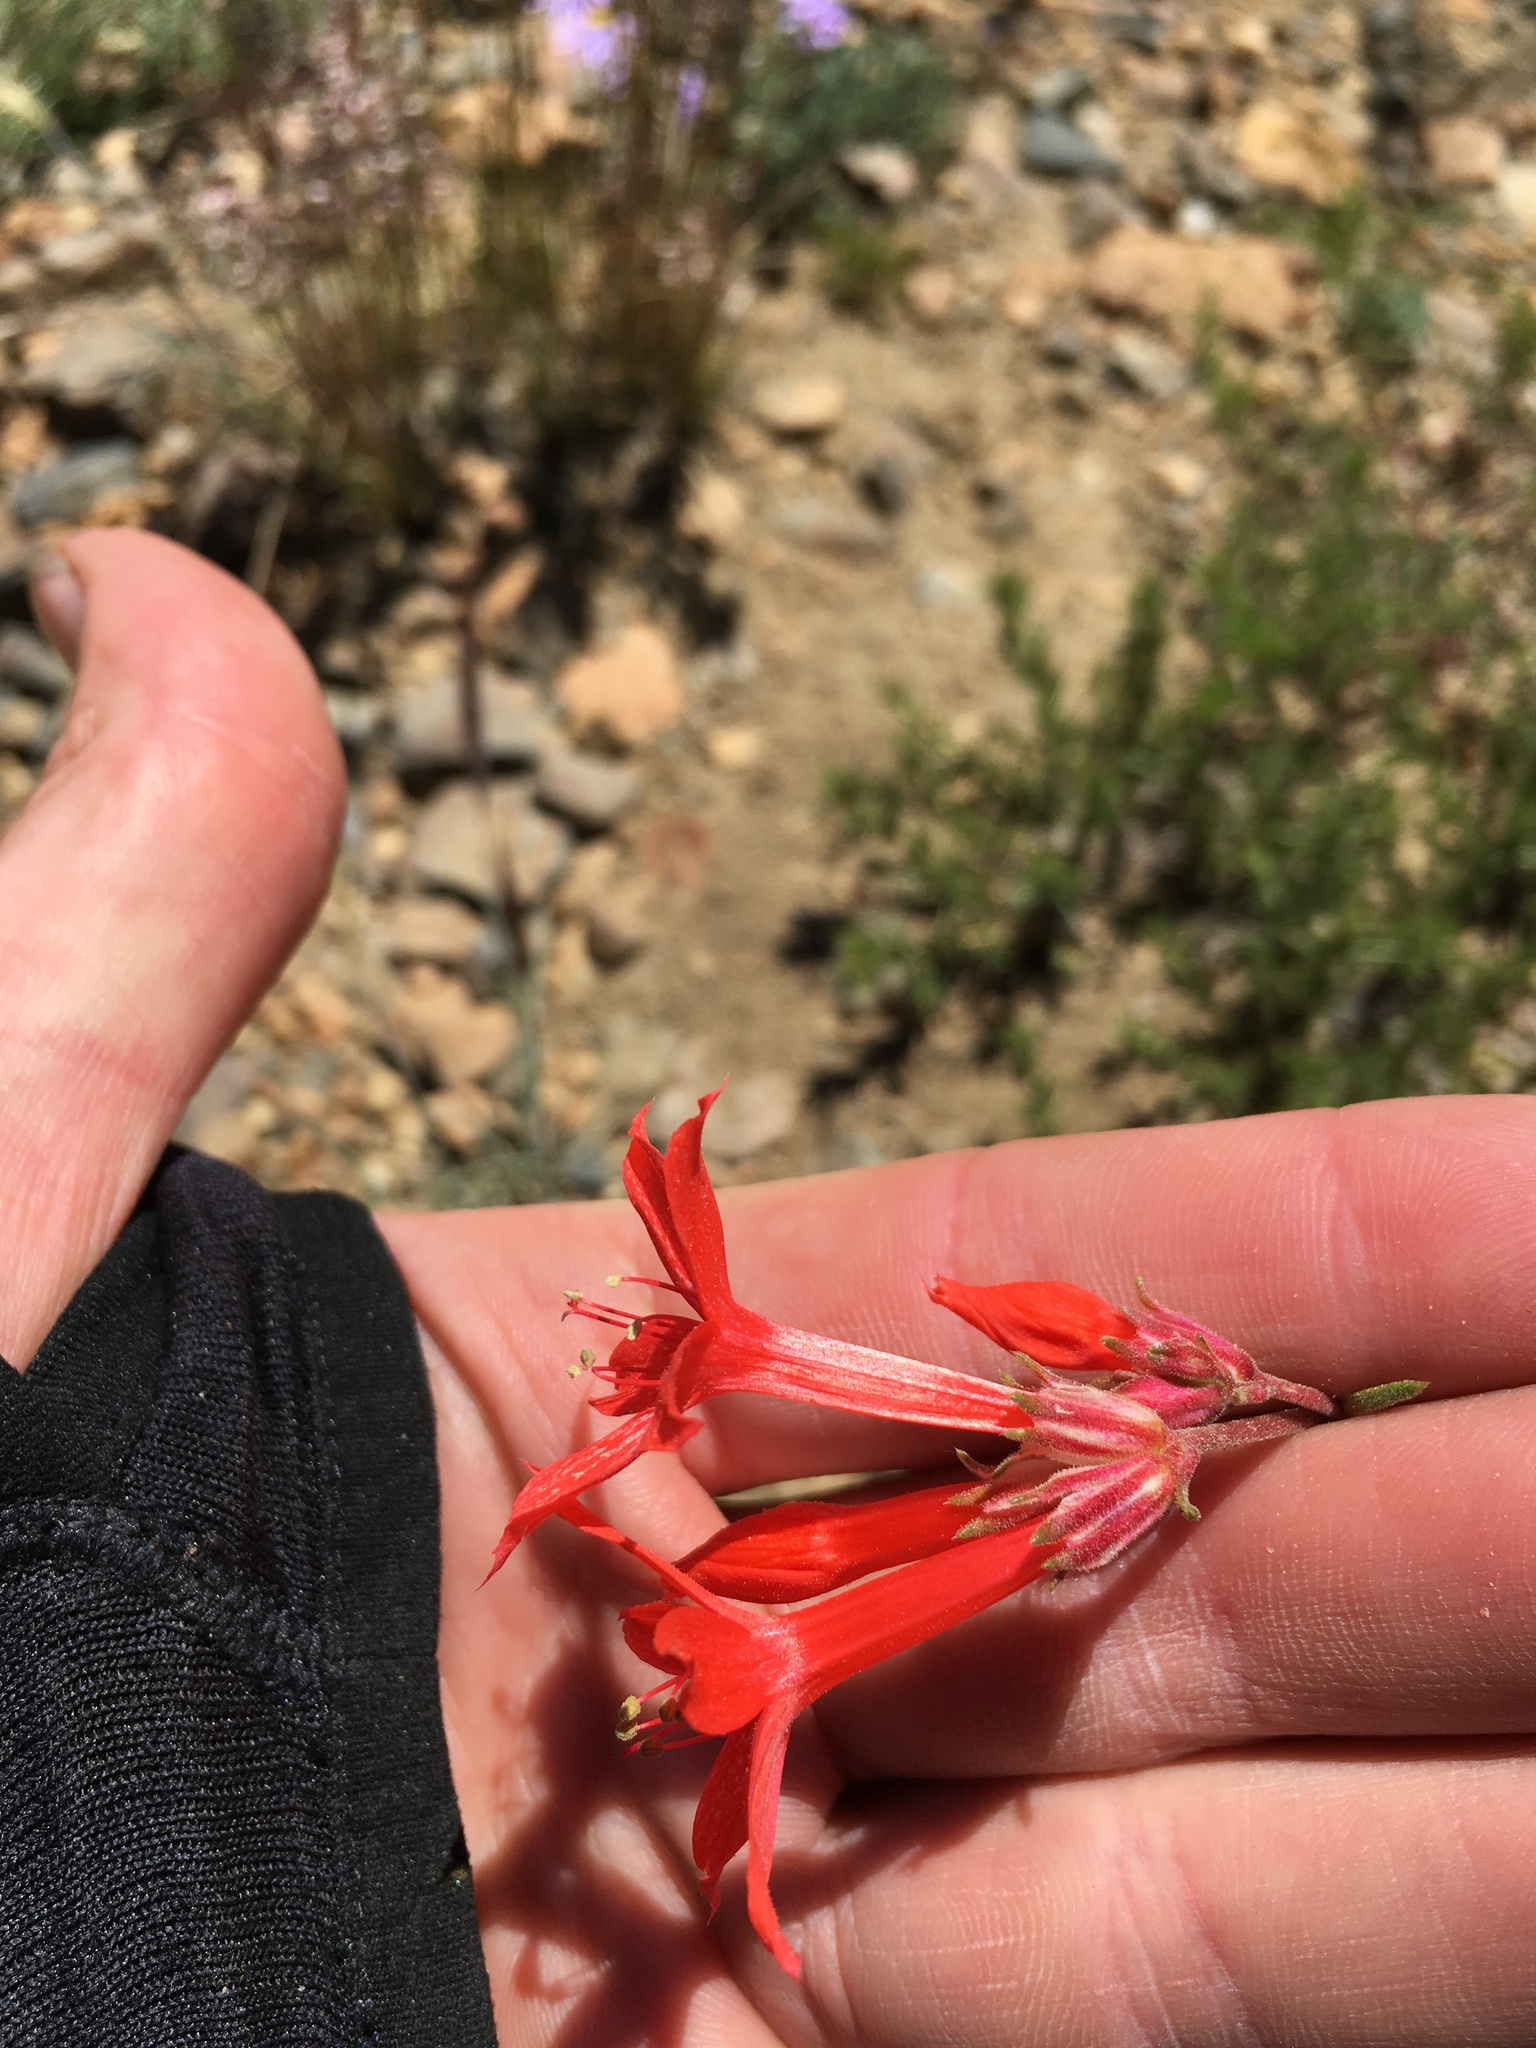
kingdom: Plantae
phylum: Tracheophyta
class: Magnoliopsida
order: Ericales
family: Polemoniaceae
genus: Ipomopsis
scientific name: Ipomopsis aggregata
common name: Scarlet gilia
